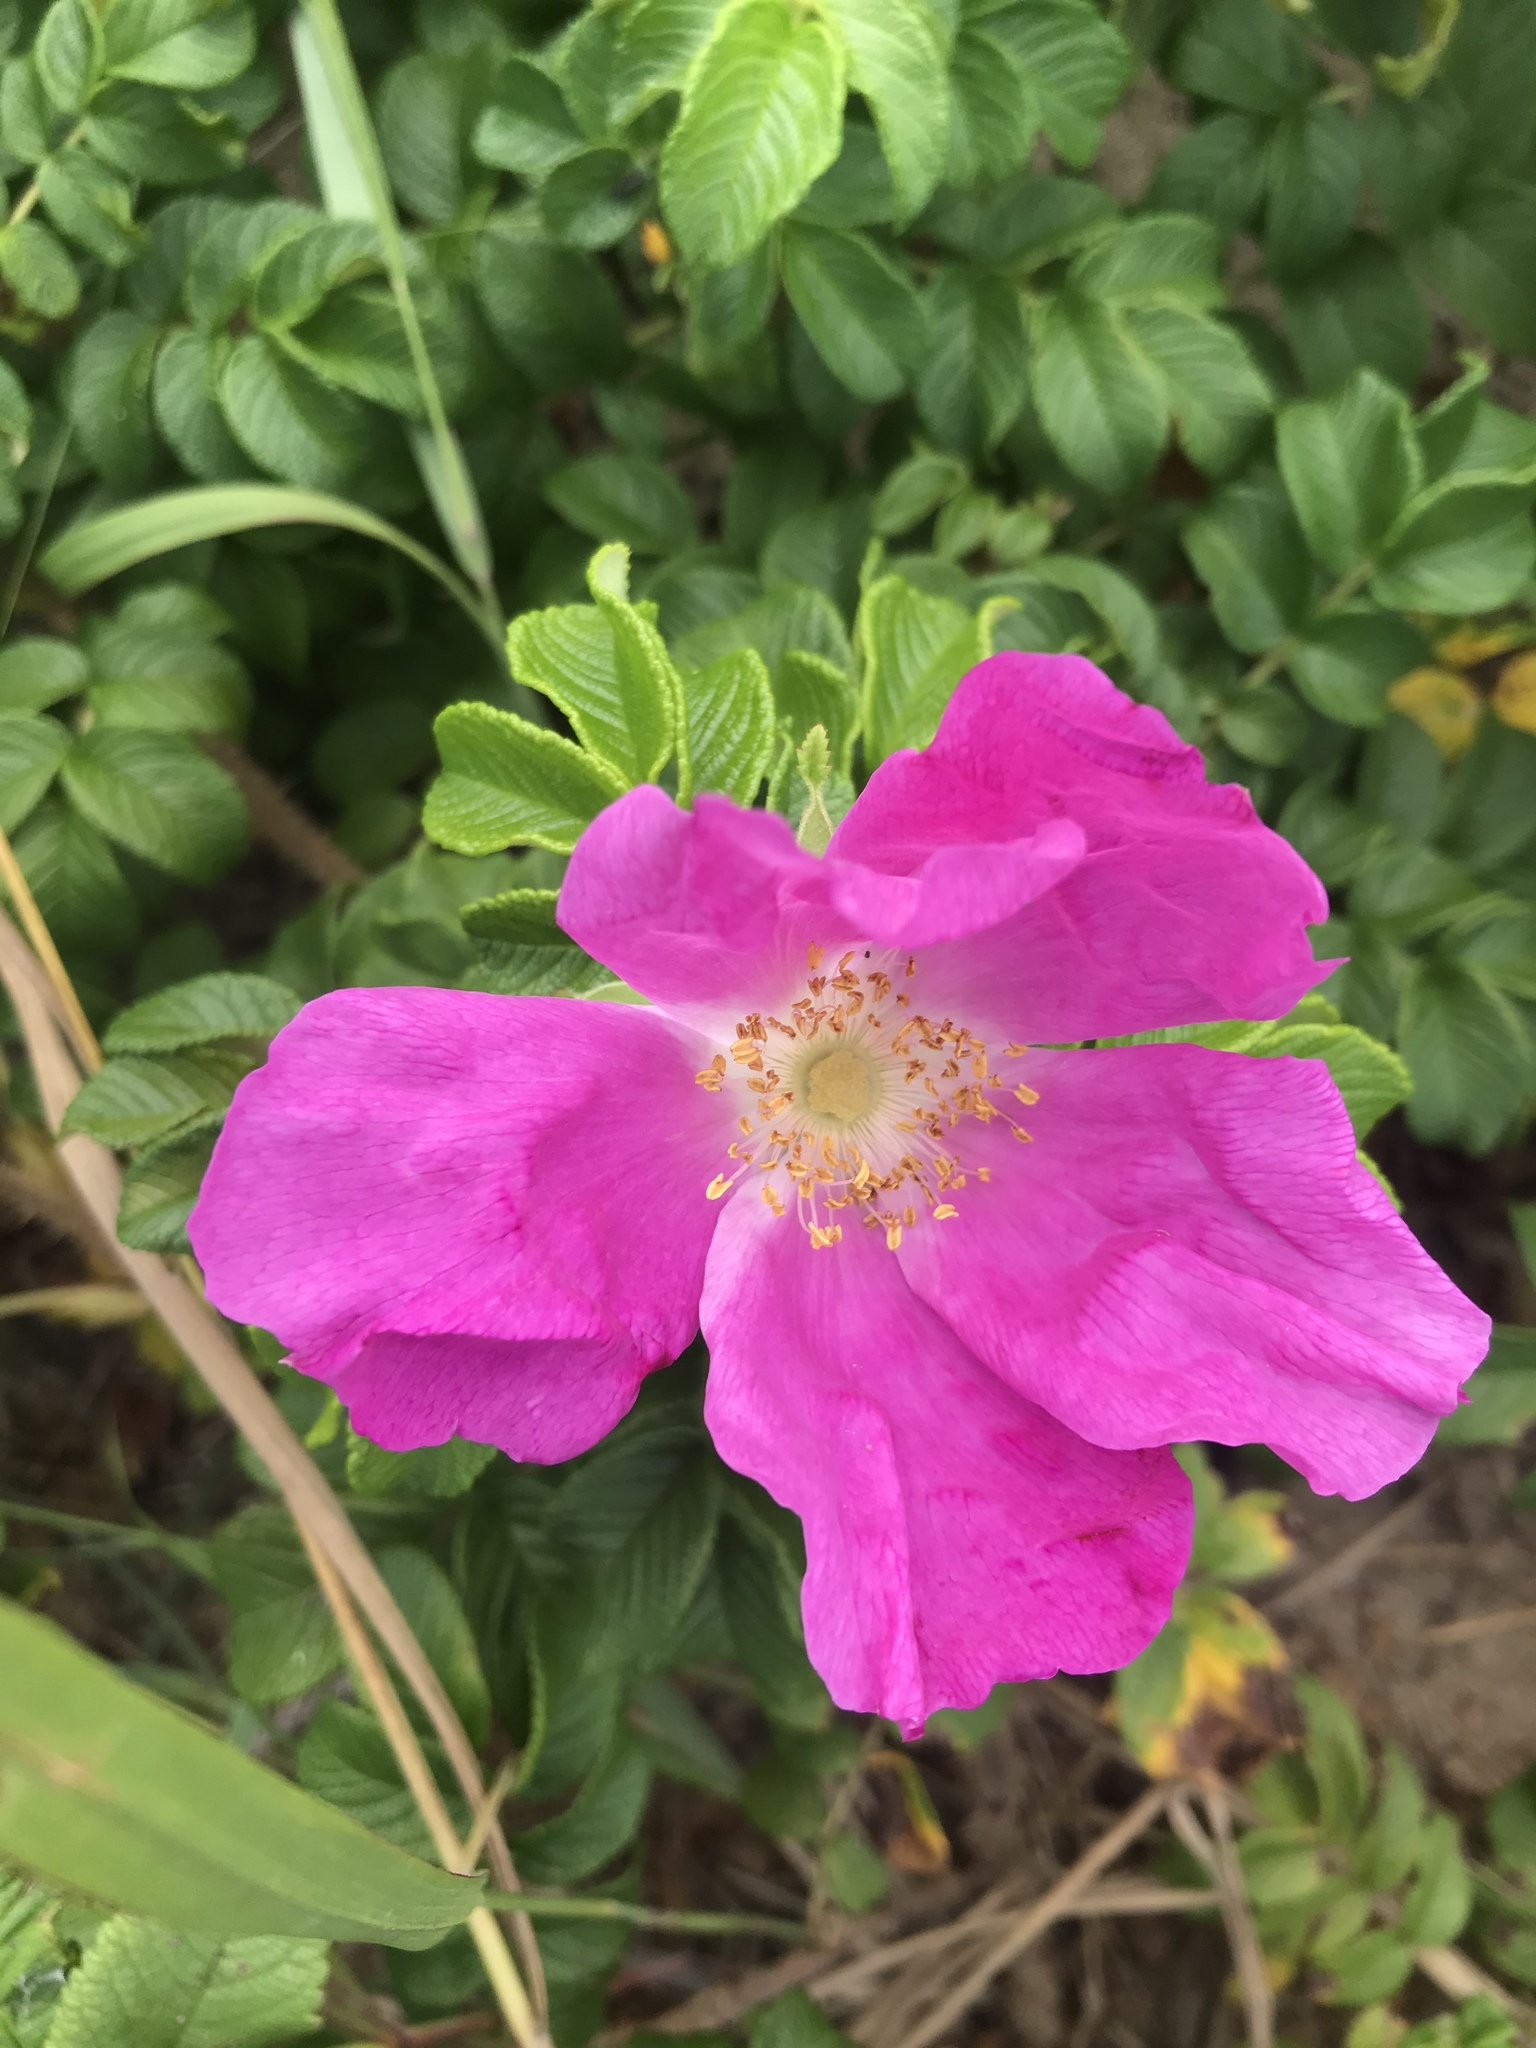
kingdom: Plantae
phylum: Tracheophyta
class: Magnoliopsida
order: Rosales
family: Rosaceae
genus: Rosa
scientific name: Rosa rugosa
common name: Japanese rose
